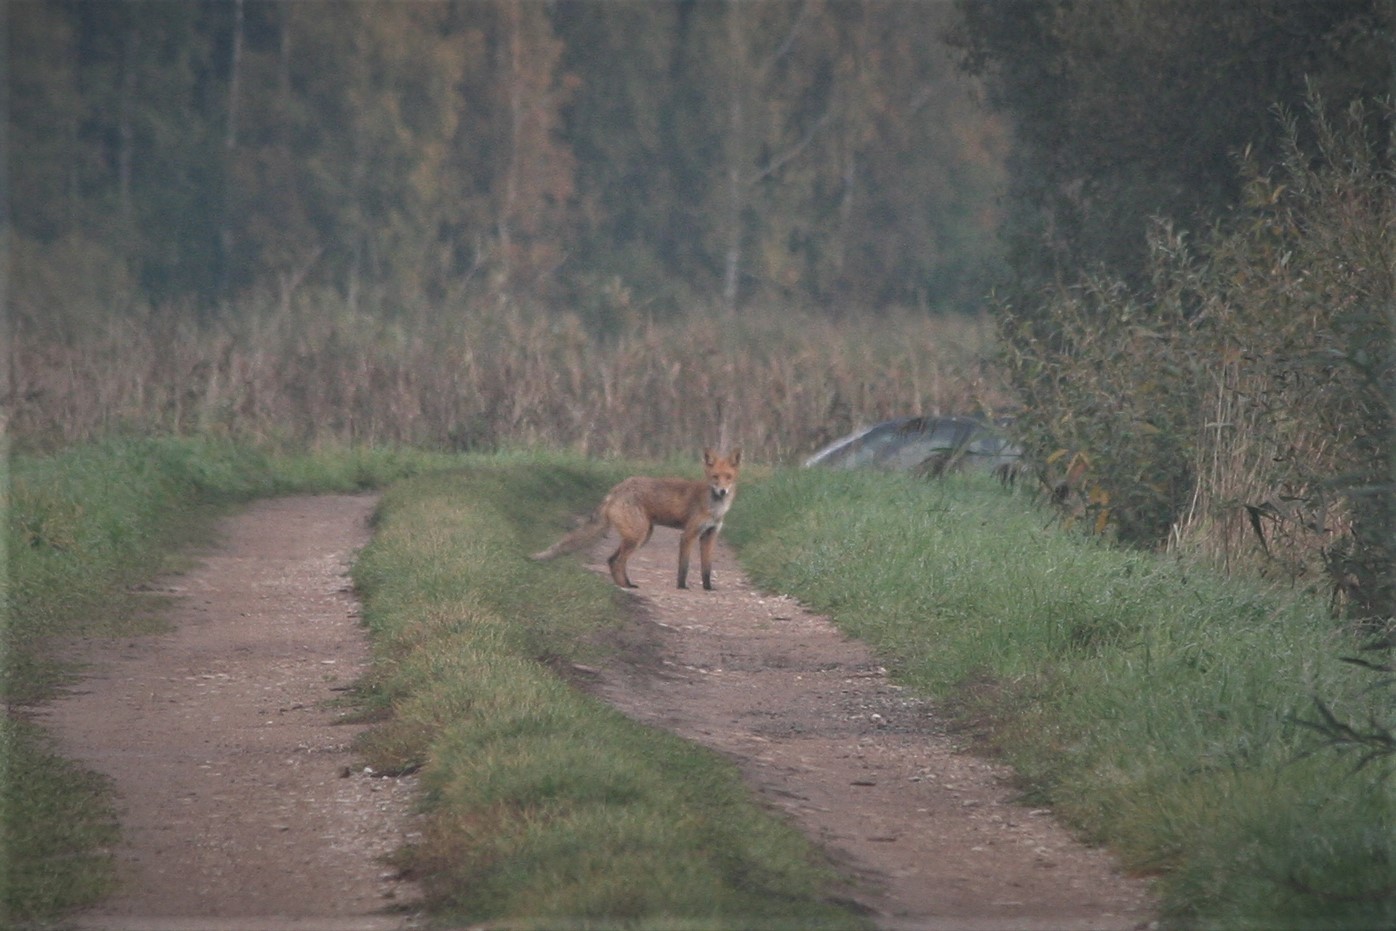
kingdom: Animalia
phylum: Chordata
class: Mammalia
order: Carnivora
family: Canidae
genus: Vulpes
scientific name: Vulpes vulpes
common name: Red fox
